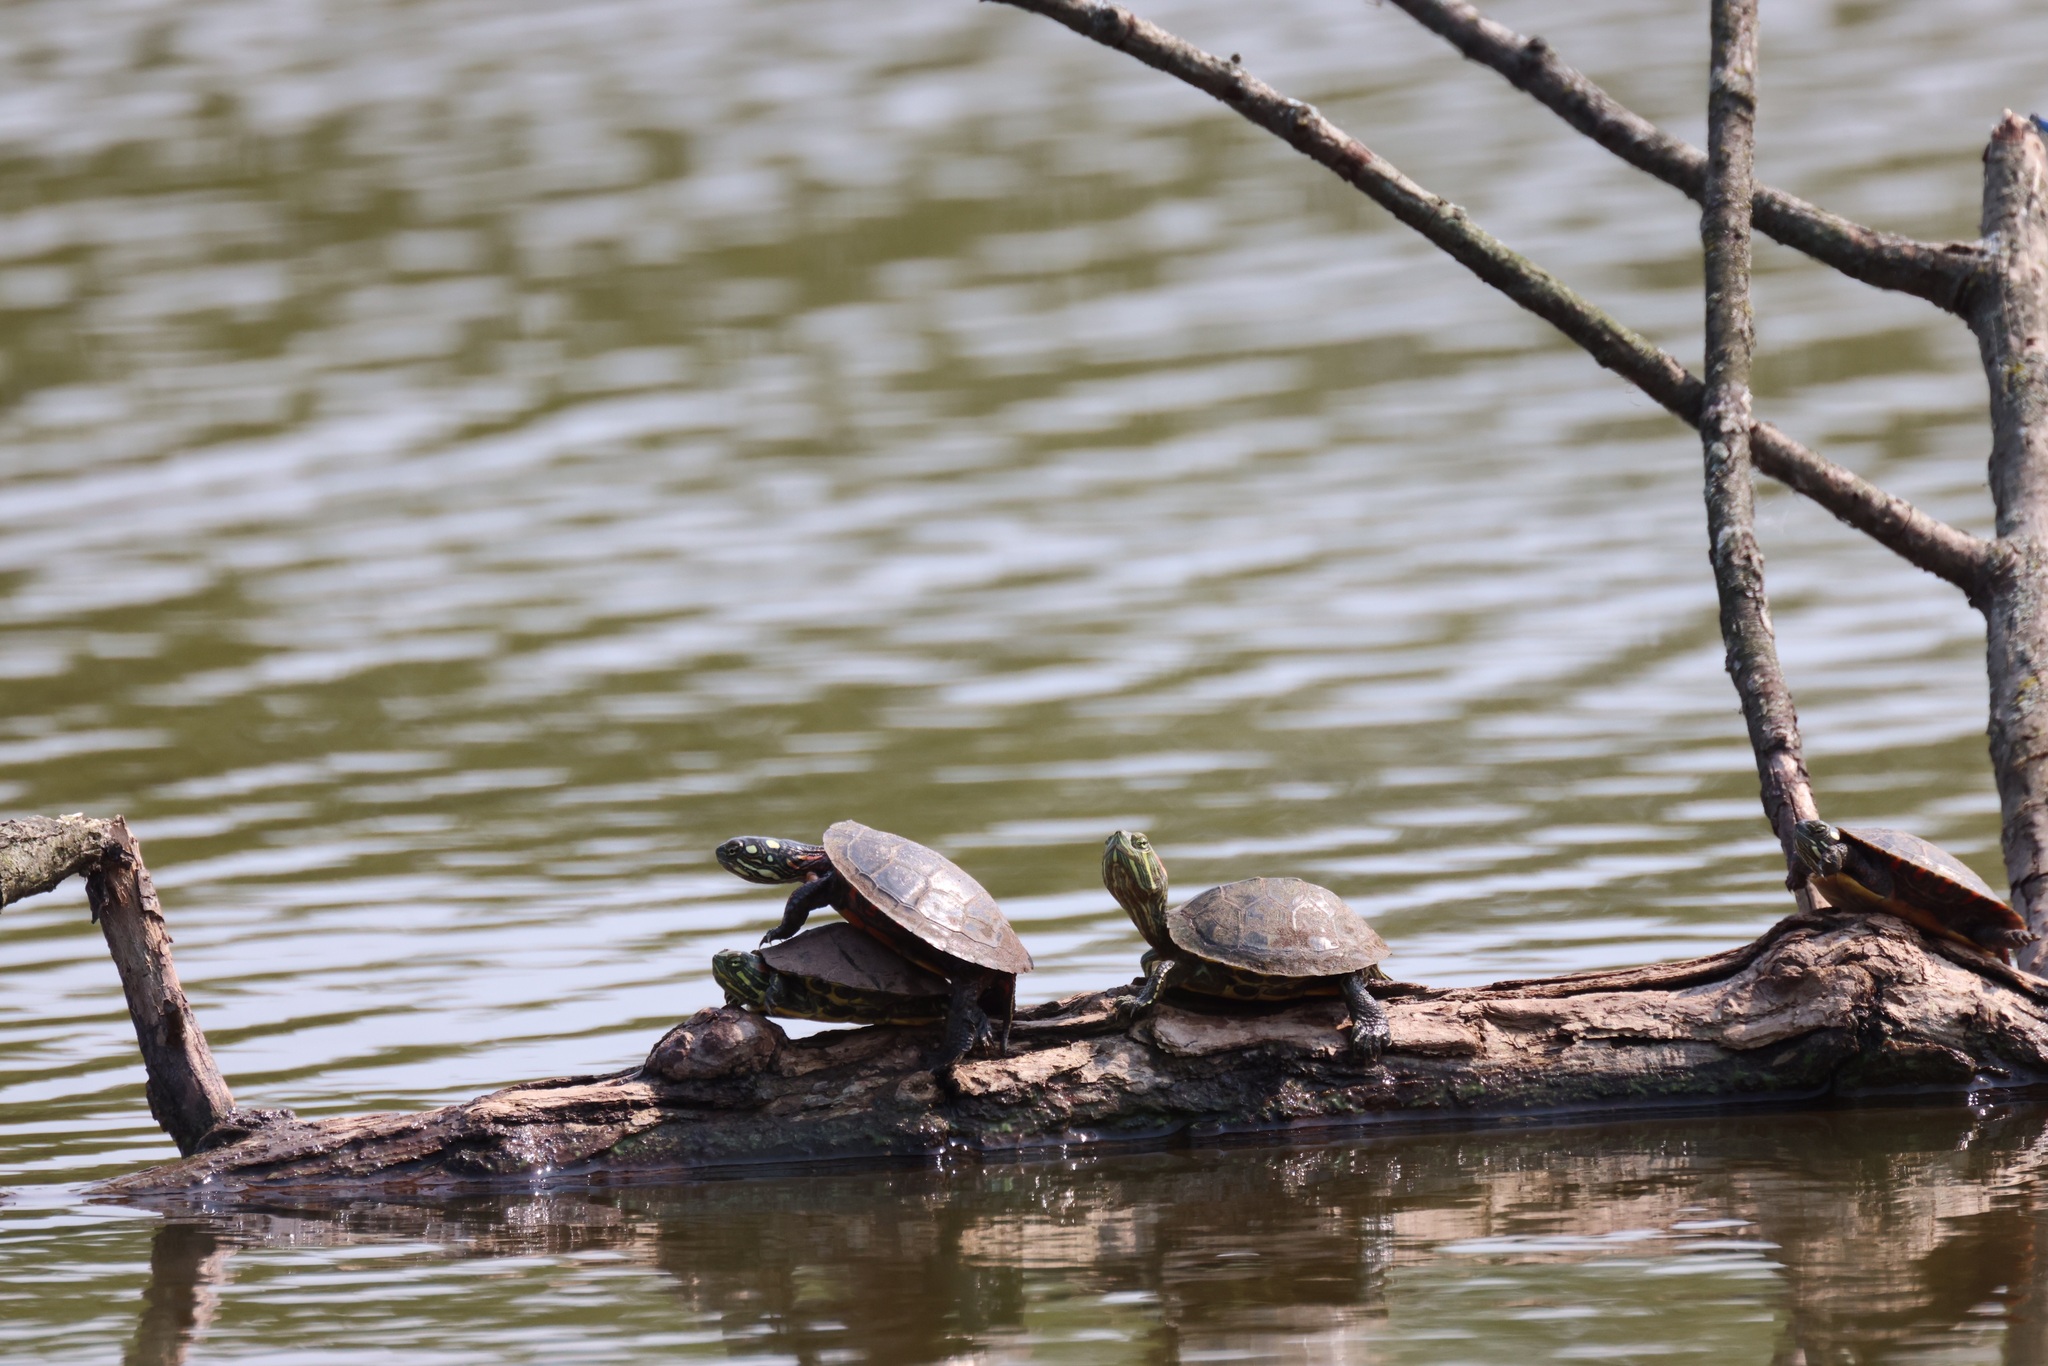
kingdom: Animalia
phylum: Chordata
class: Testudines
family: Emydidae
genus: Chrysemys
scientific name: Chrysemys picta
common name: Painted turtle
